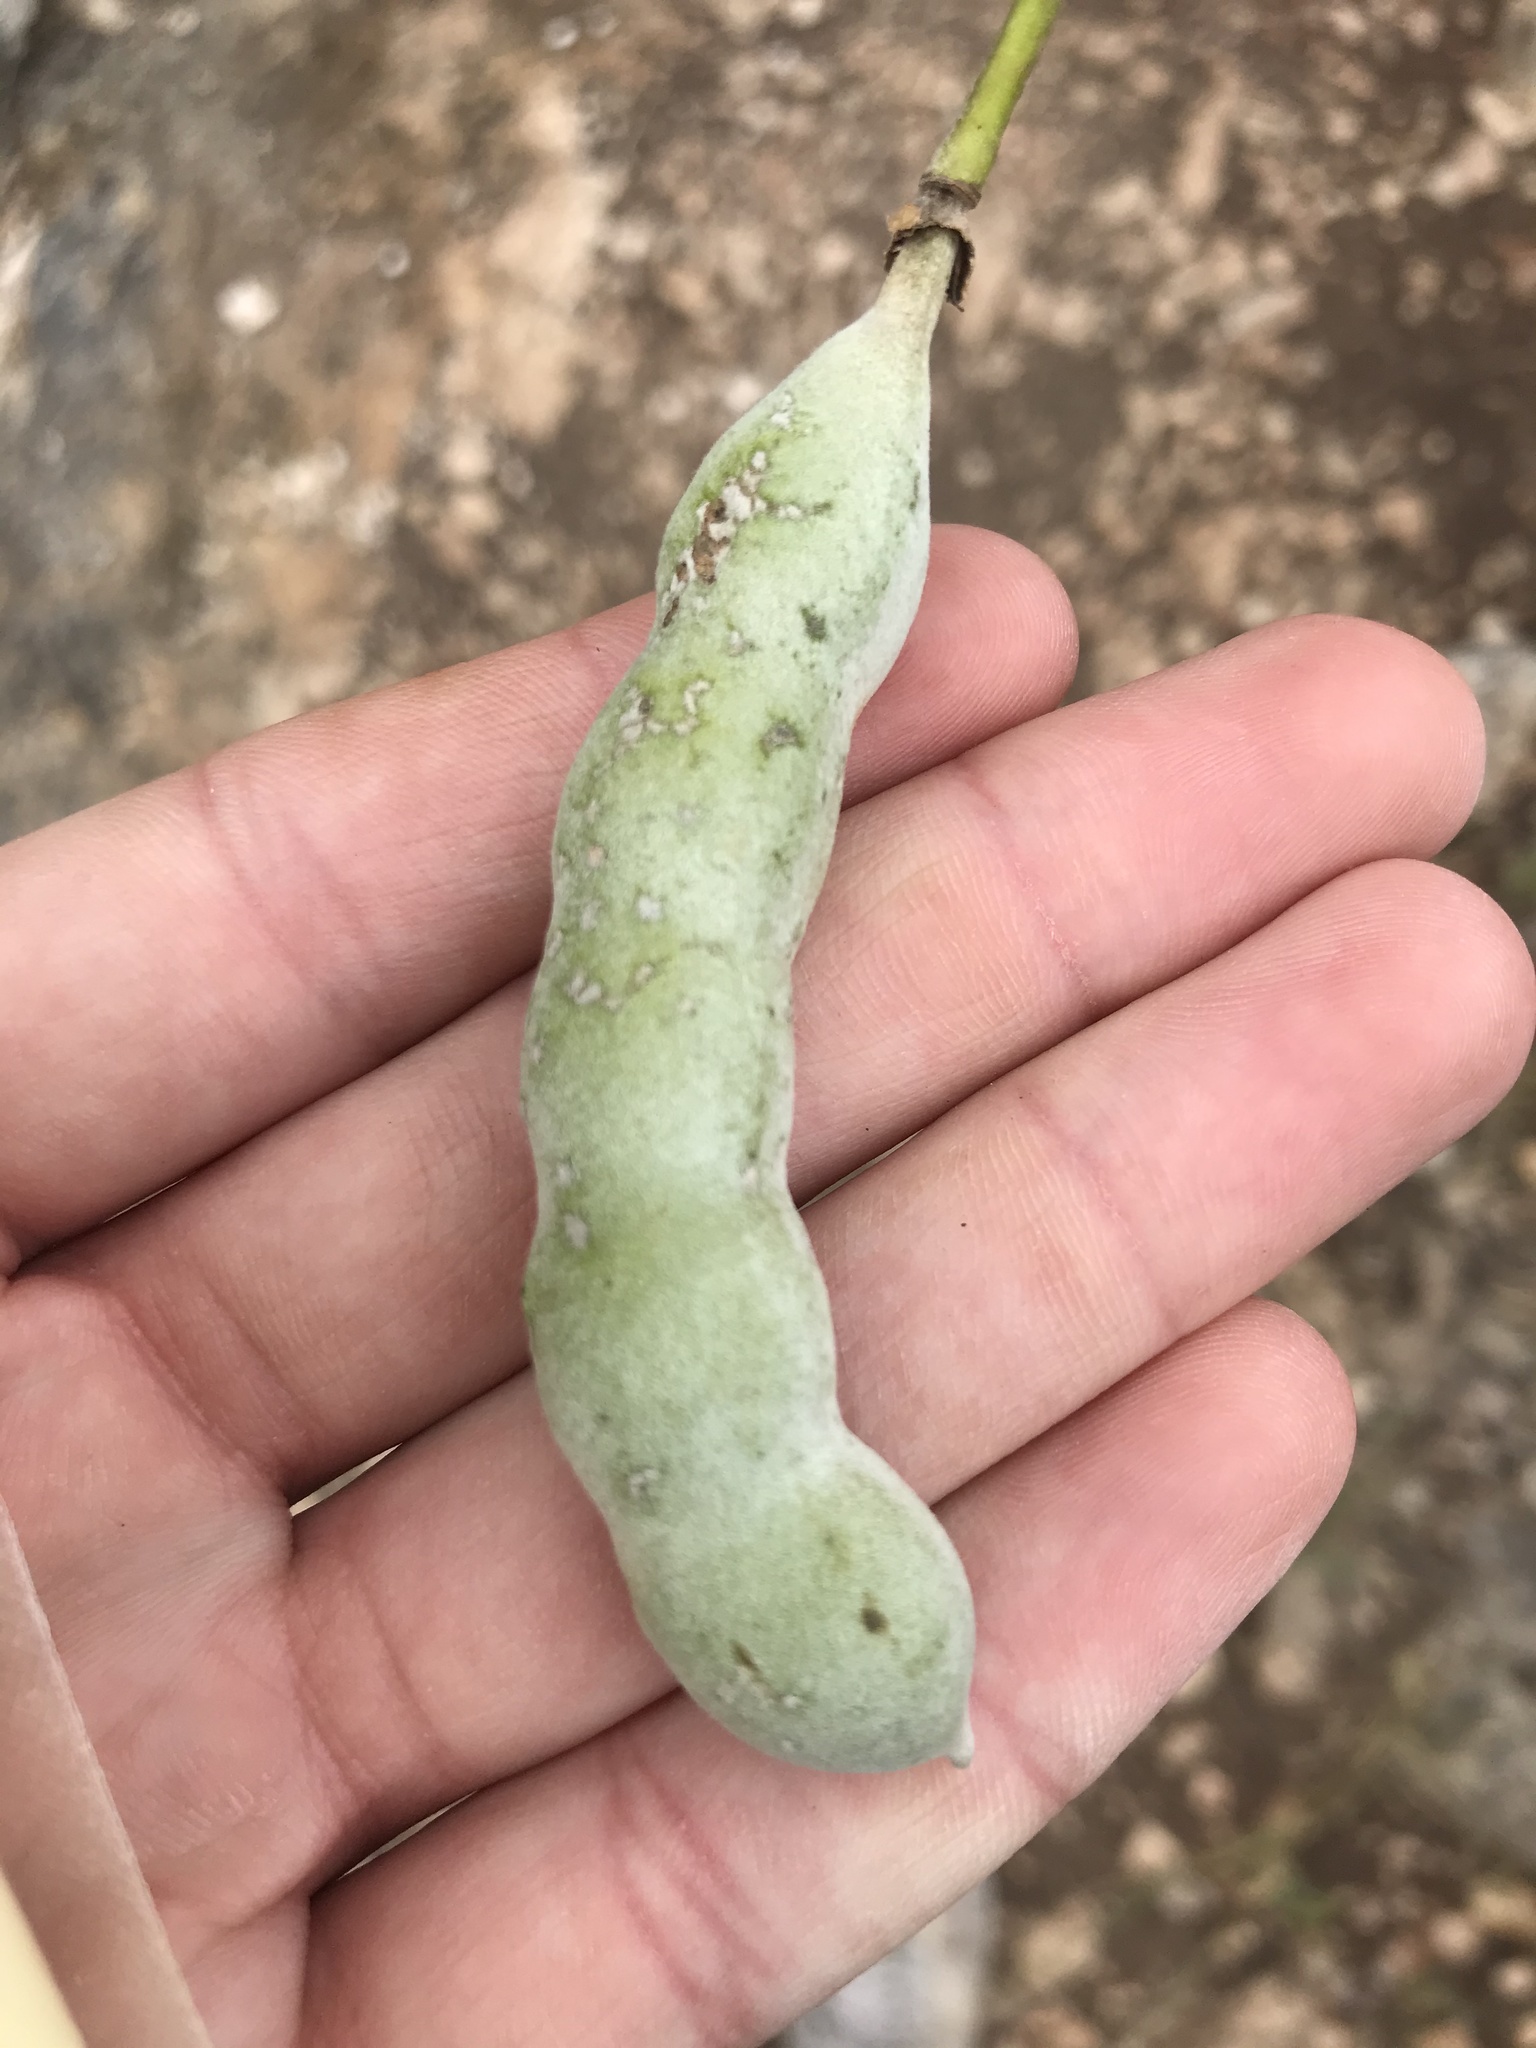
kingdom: Plantae
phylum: Tracheophyta
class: Magnoliopsida
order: Fabales
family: Fabaceae
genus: Dermatophyllum
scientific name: Dermatophyllum secundiflorum
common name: Texas-mountain-laurel
